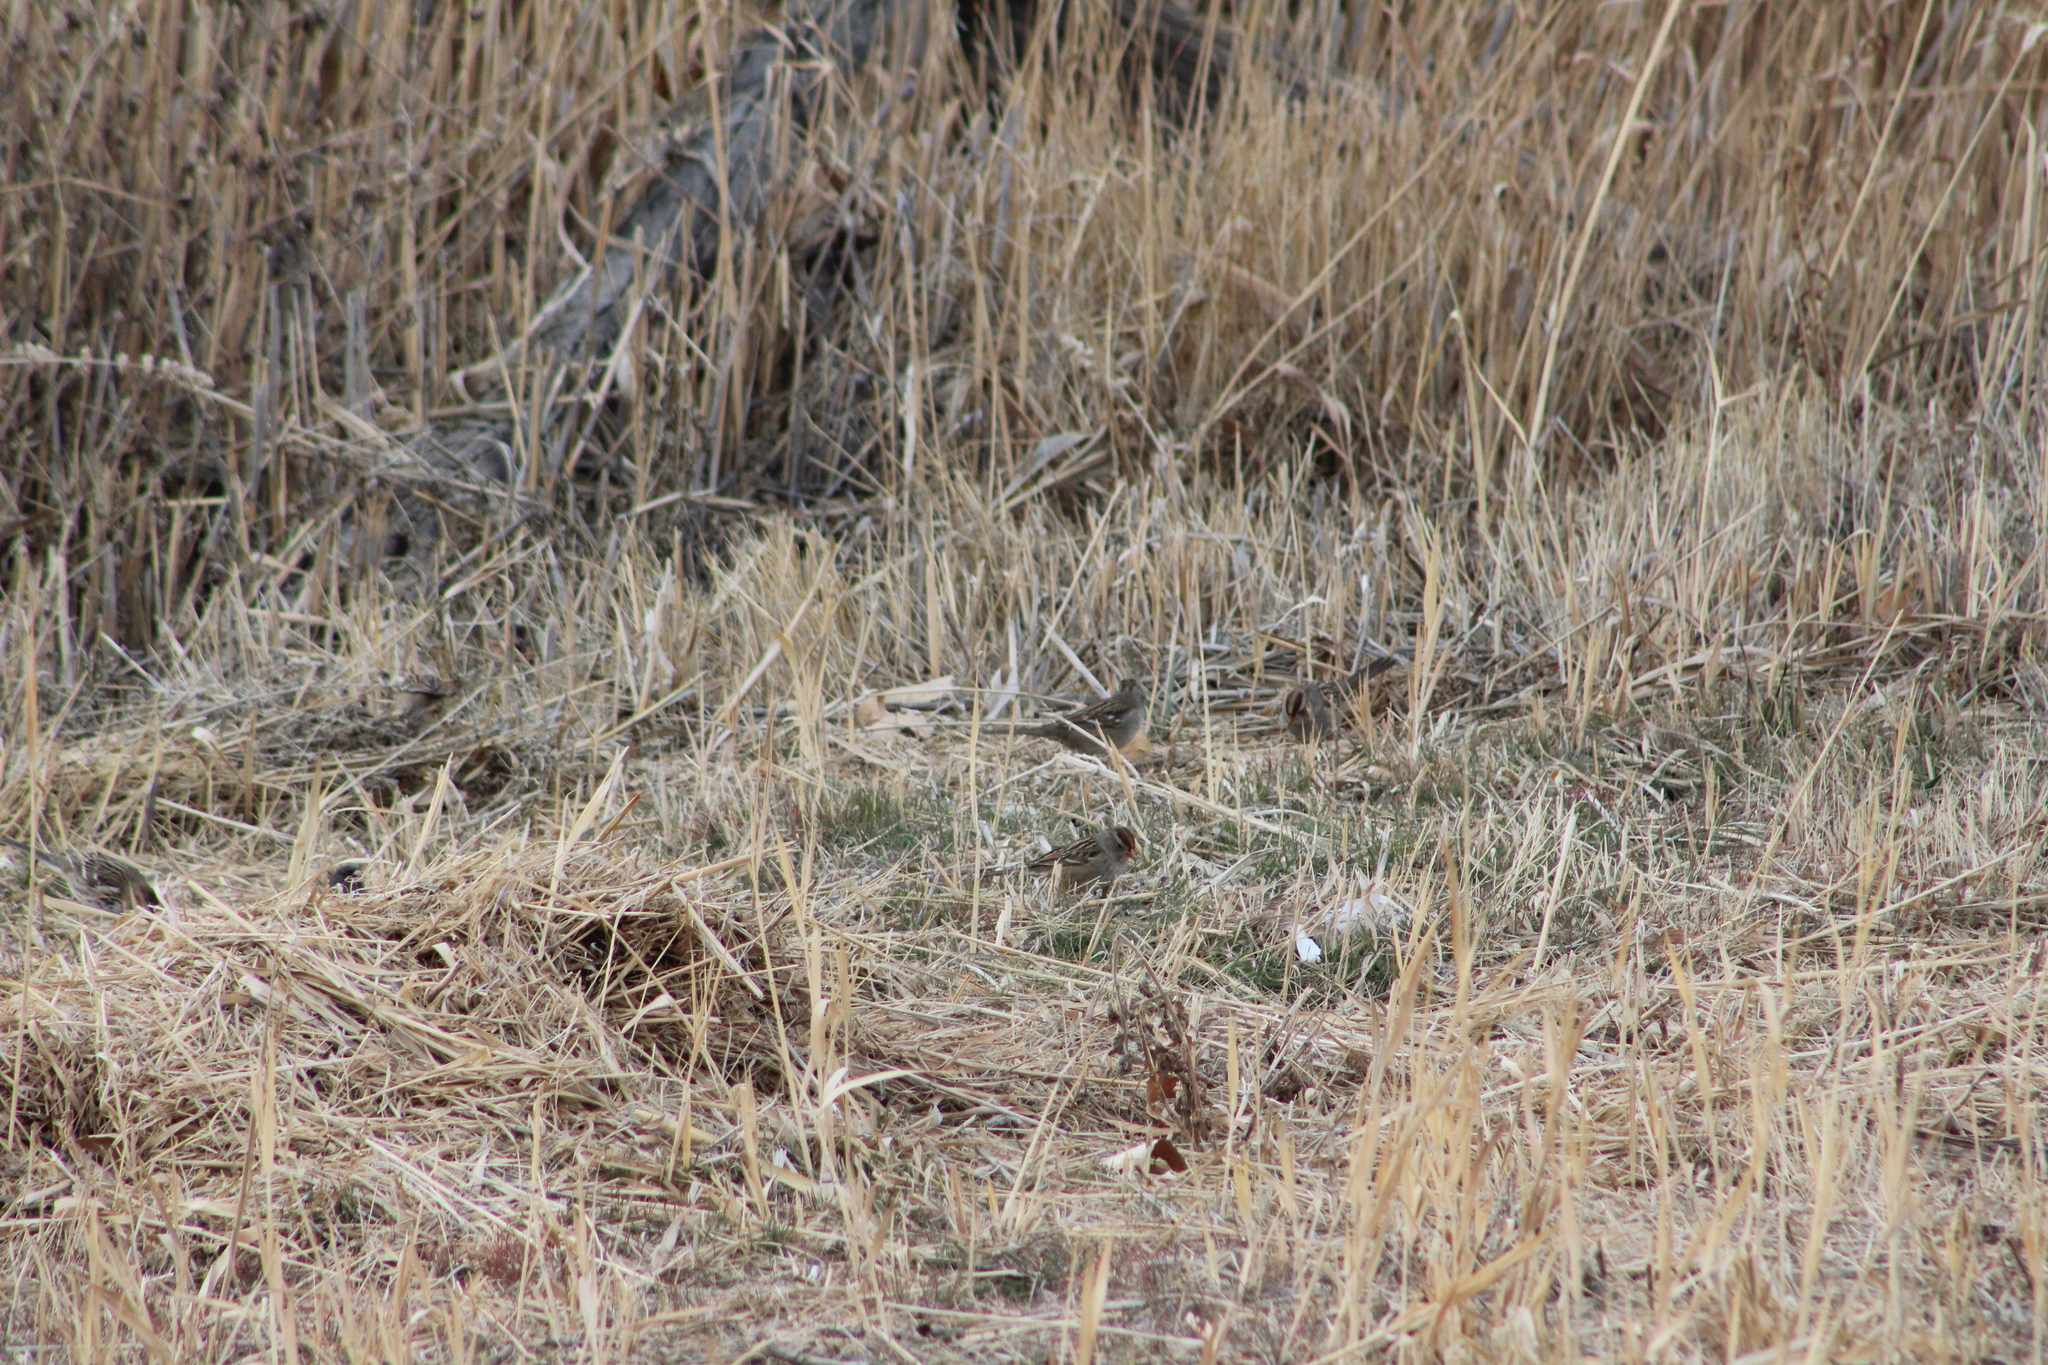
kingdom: Animalia
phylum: Chordata
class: Aves
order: Passeriformes
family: Passerellidae
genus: Zonotrichia
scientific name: Zonotrichia leucophrys
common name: White-crowned sparrow
